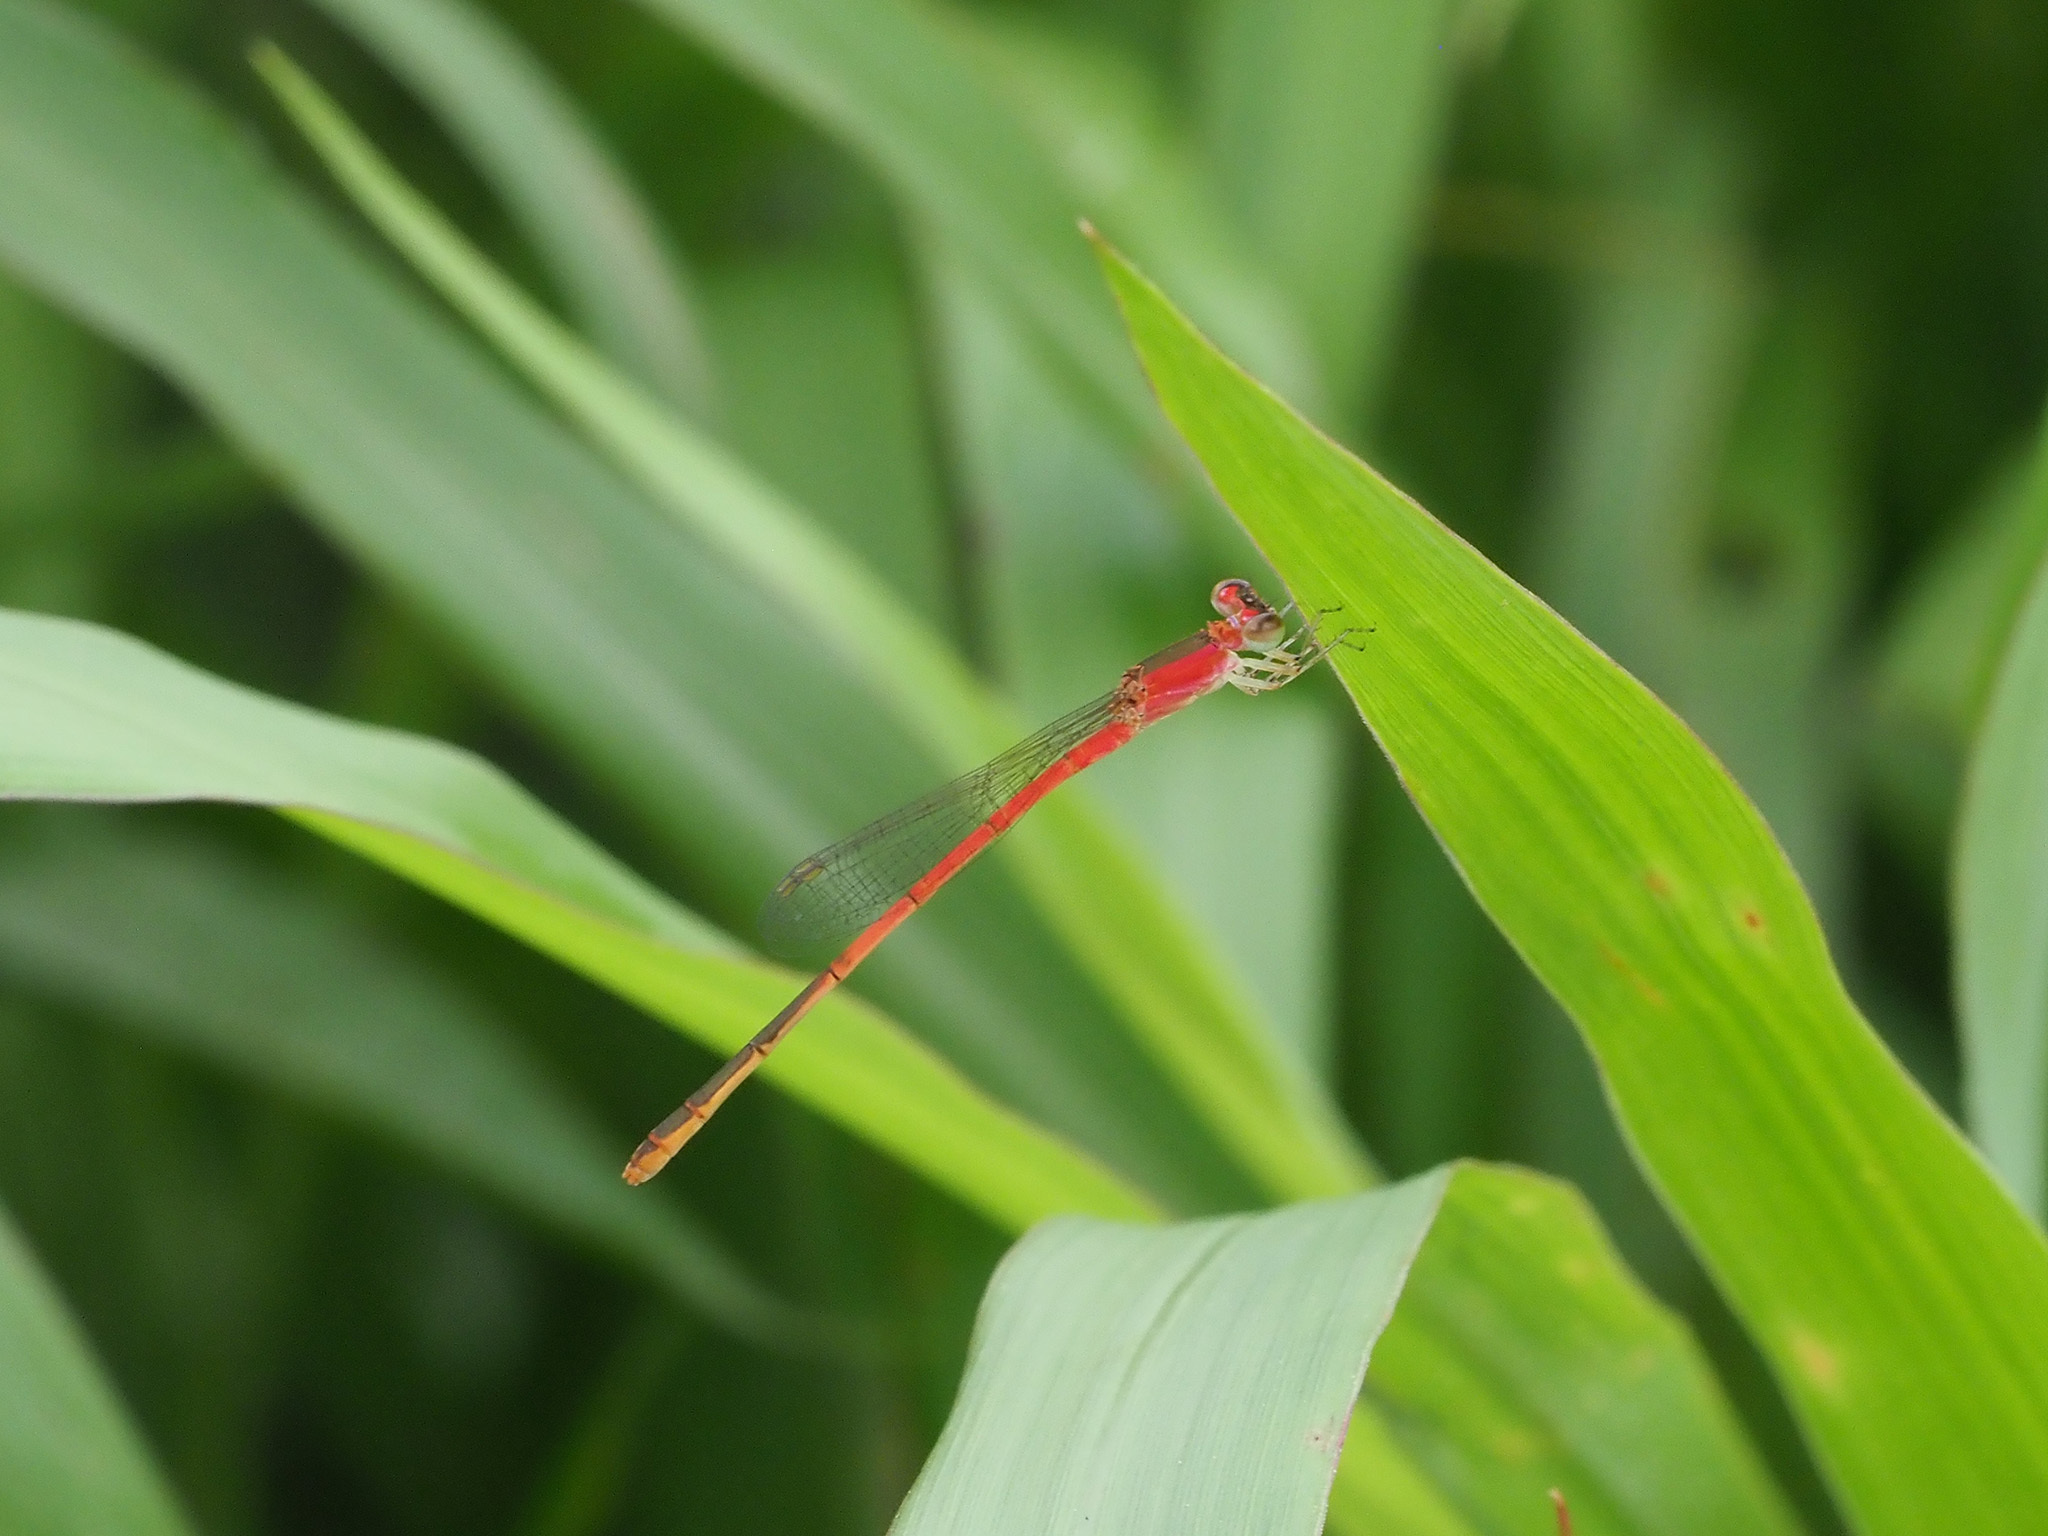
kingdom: Animalia
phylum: Arthropoda
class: Insecta
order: Odonata
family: Coenagrionidae
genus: Agriocnemis
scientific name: Agriocnemis femina
